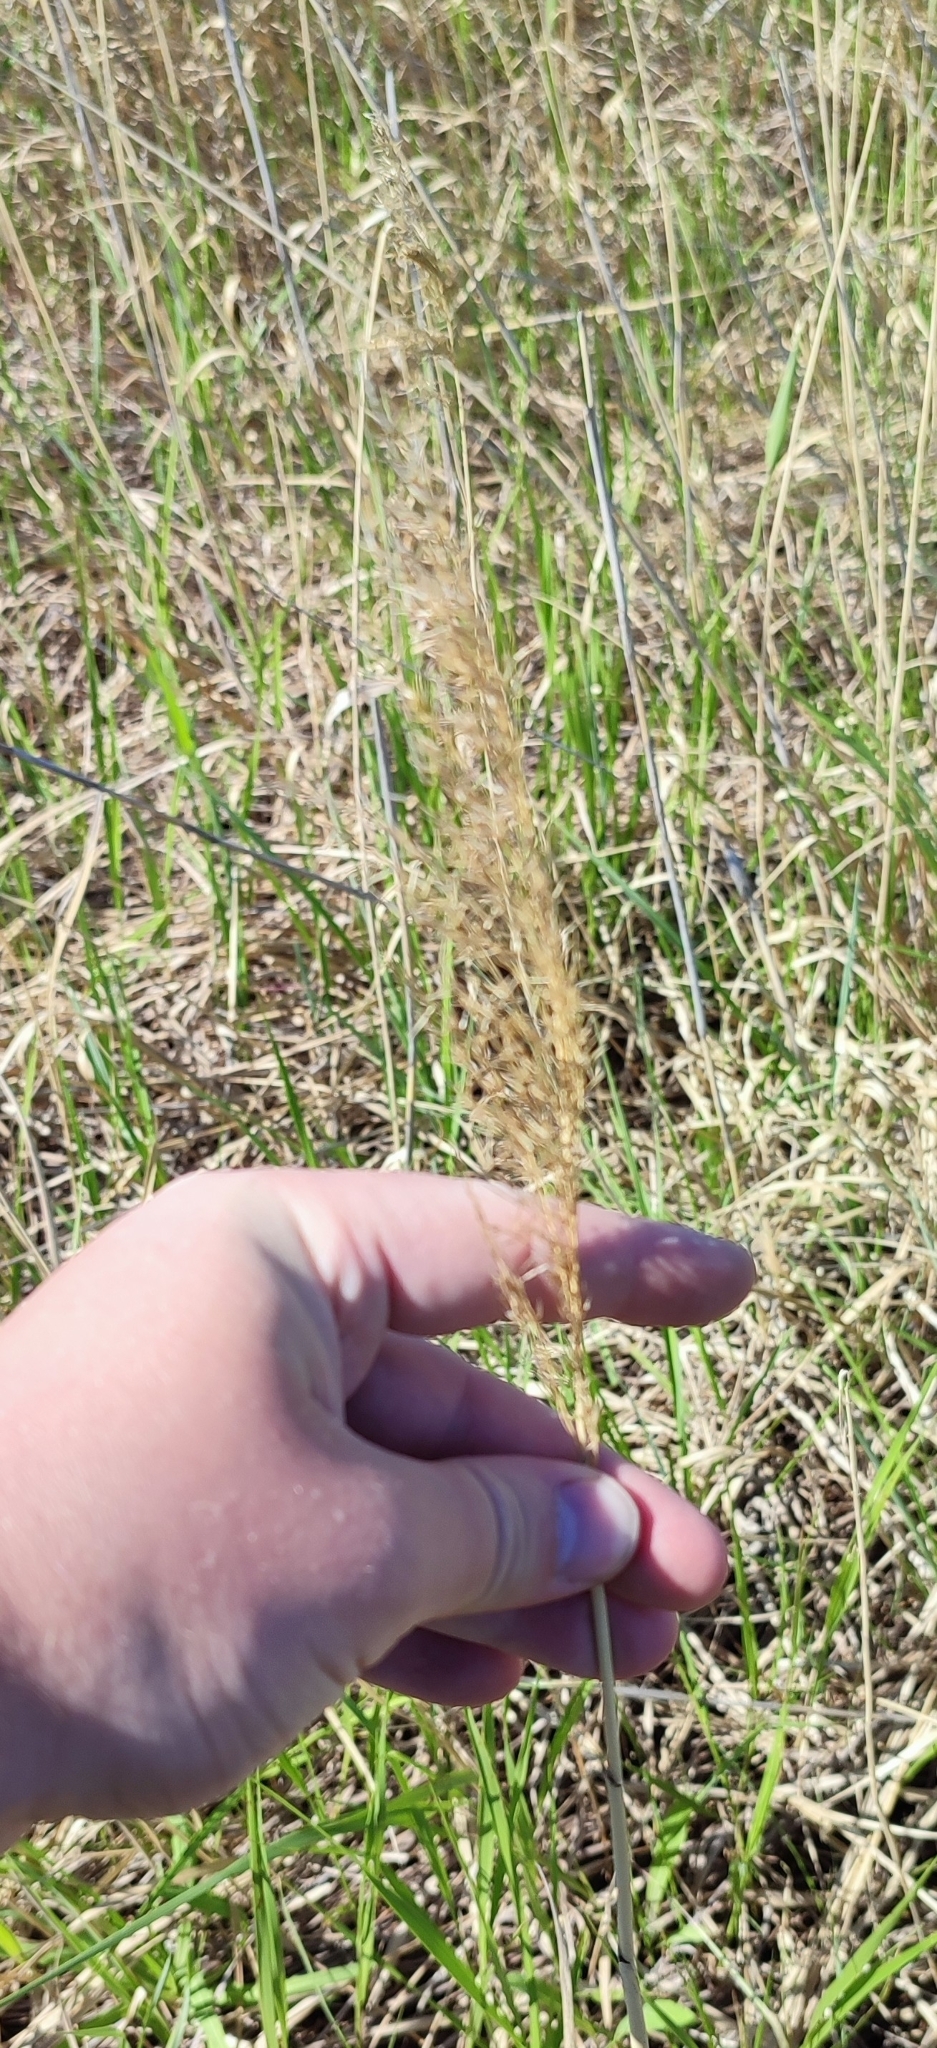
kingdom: Plantae
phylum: Tracheophyta
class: Liliopsida
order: Poales
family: Poaceae
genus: Phragmites
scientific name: Phragmites australis
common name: Common reed
